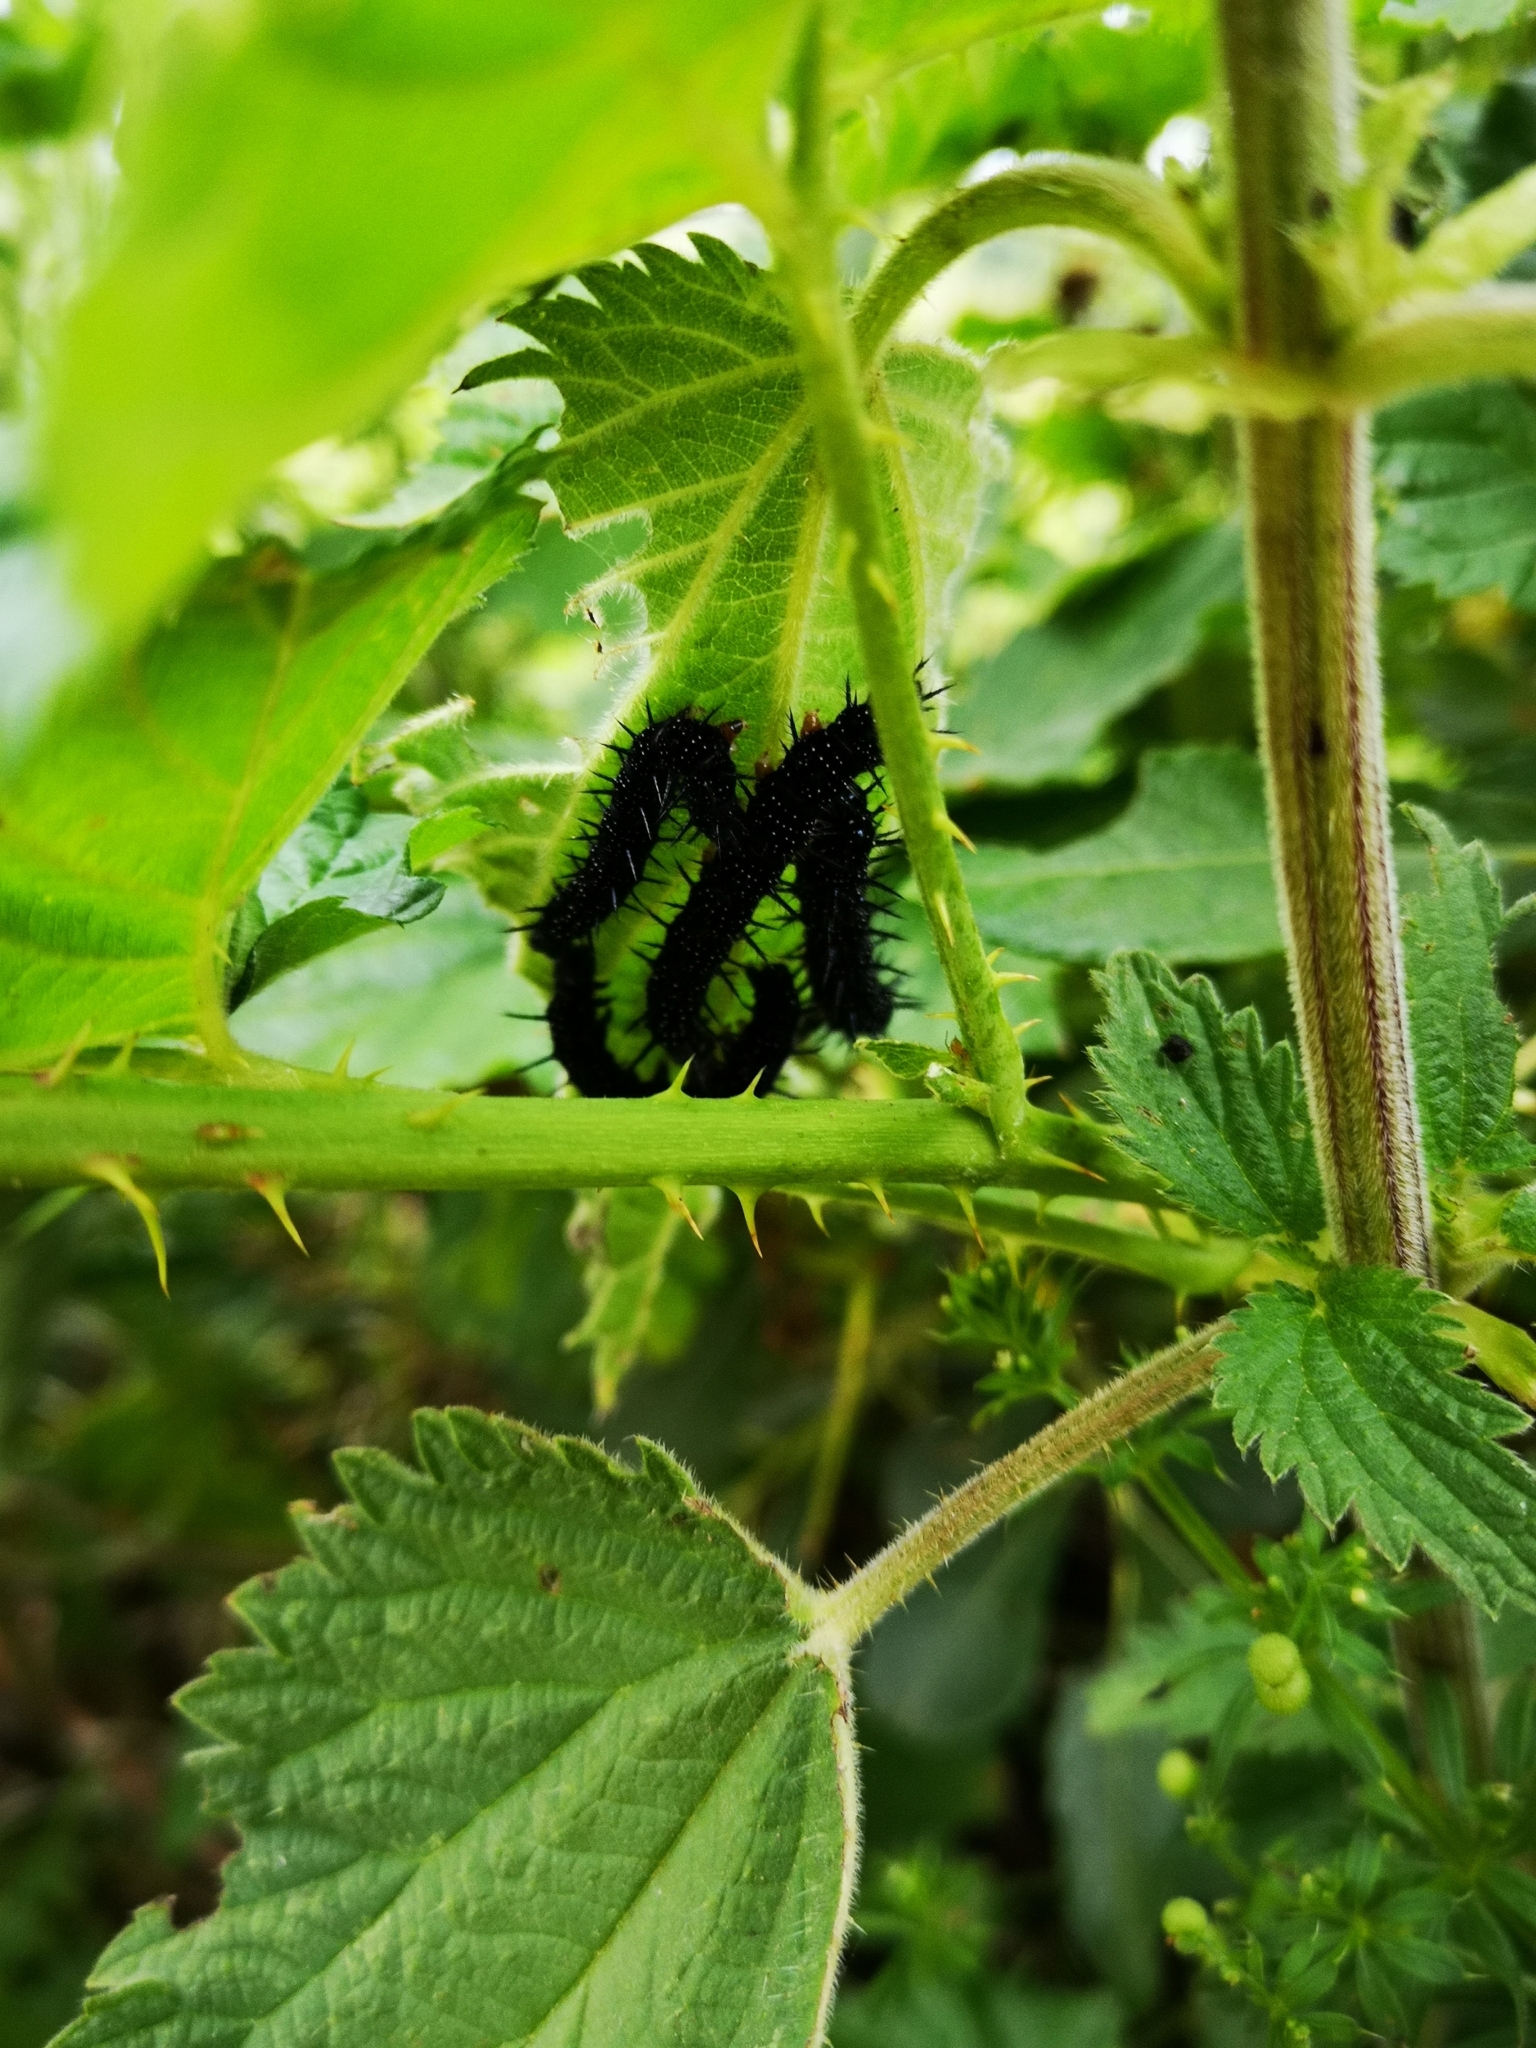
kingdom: Animalia
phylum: Arthropoda
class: Insecta
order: Lepidoptera
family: Nymphalidae
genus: Aglais
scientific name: Aglais io
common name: Peacock
